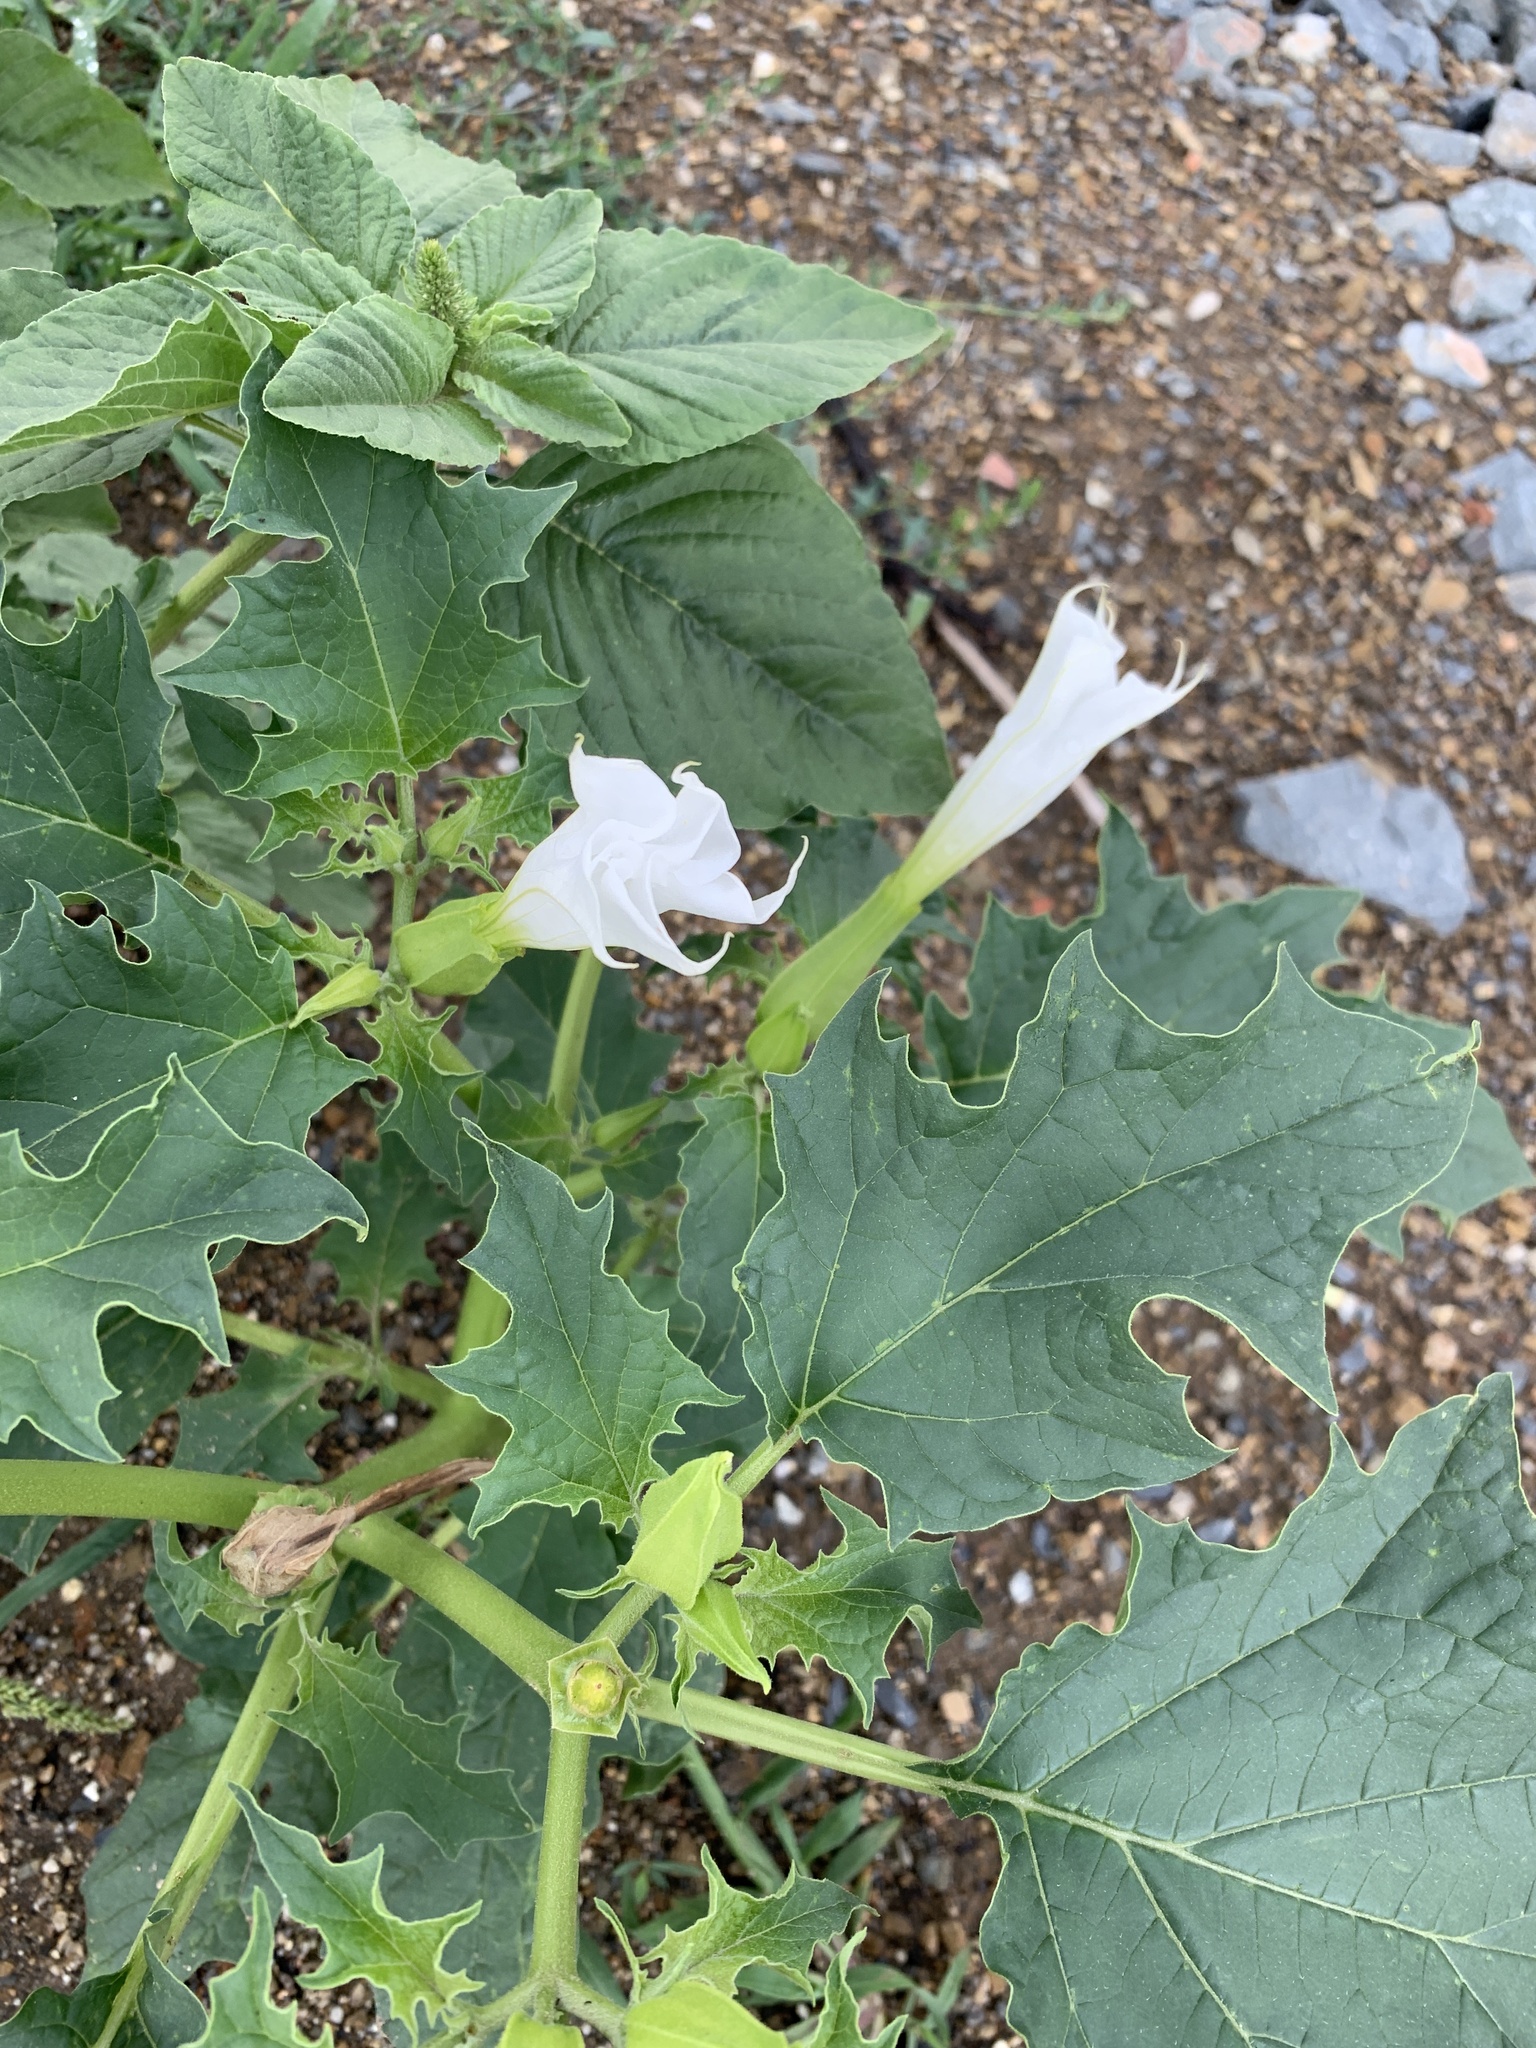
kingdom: Plantae
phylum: Tracheophyta
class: Magnoliopsida
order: Solanales
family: Solanaceae
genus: Datura
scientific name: Datura stramonium
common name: Thorn-apple
